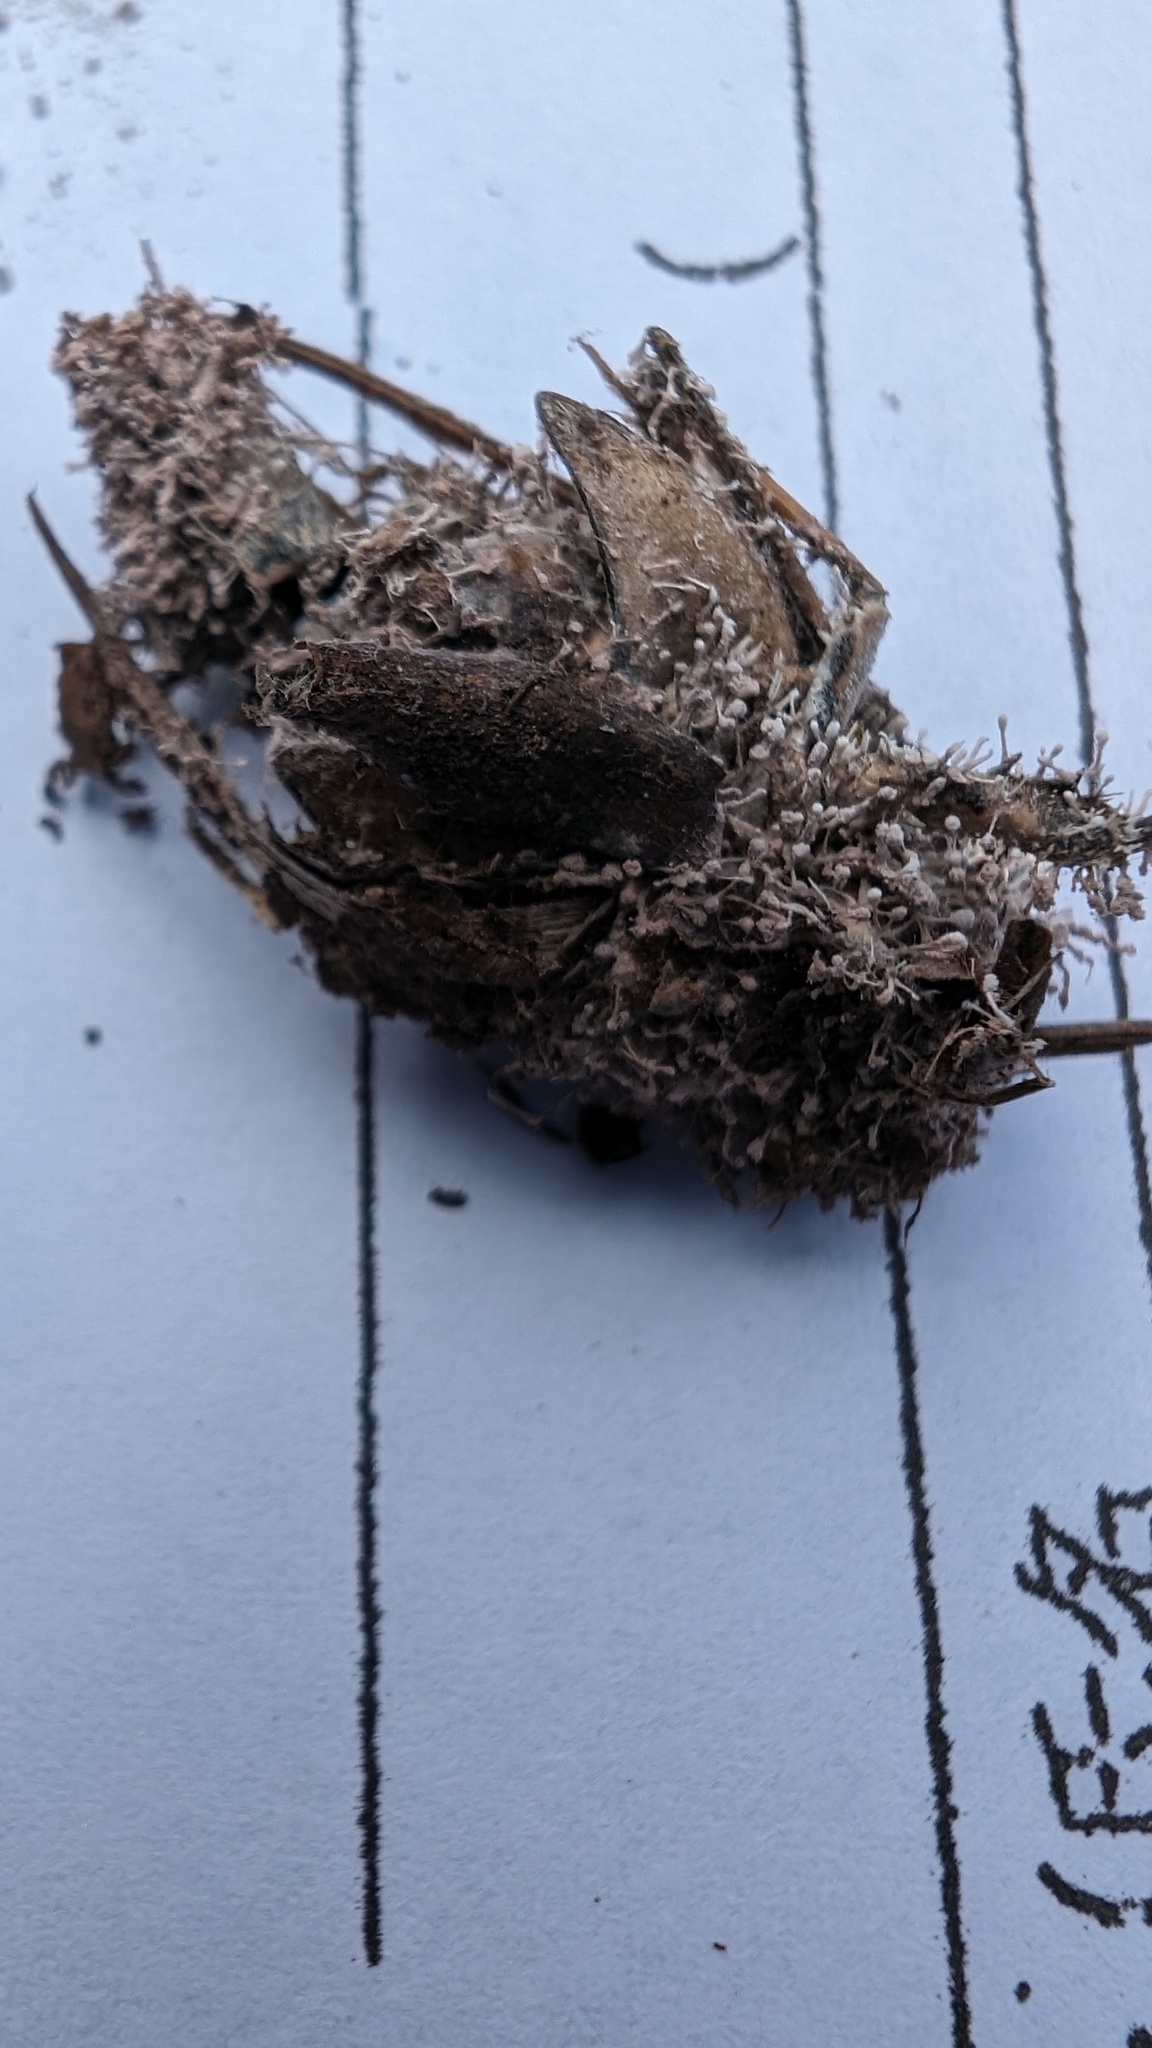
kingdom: Fungi
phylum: Ascomycota
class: Sordariomycetes
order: Hypocreales
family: Ophiocordycipitaceae
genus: Purpureocillium
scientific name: Purpureocillium takamizusanense
